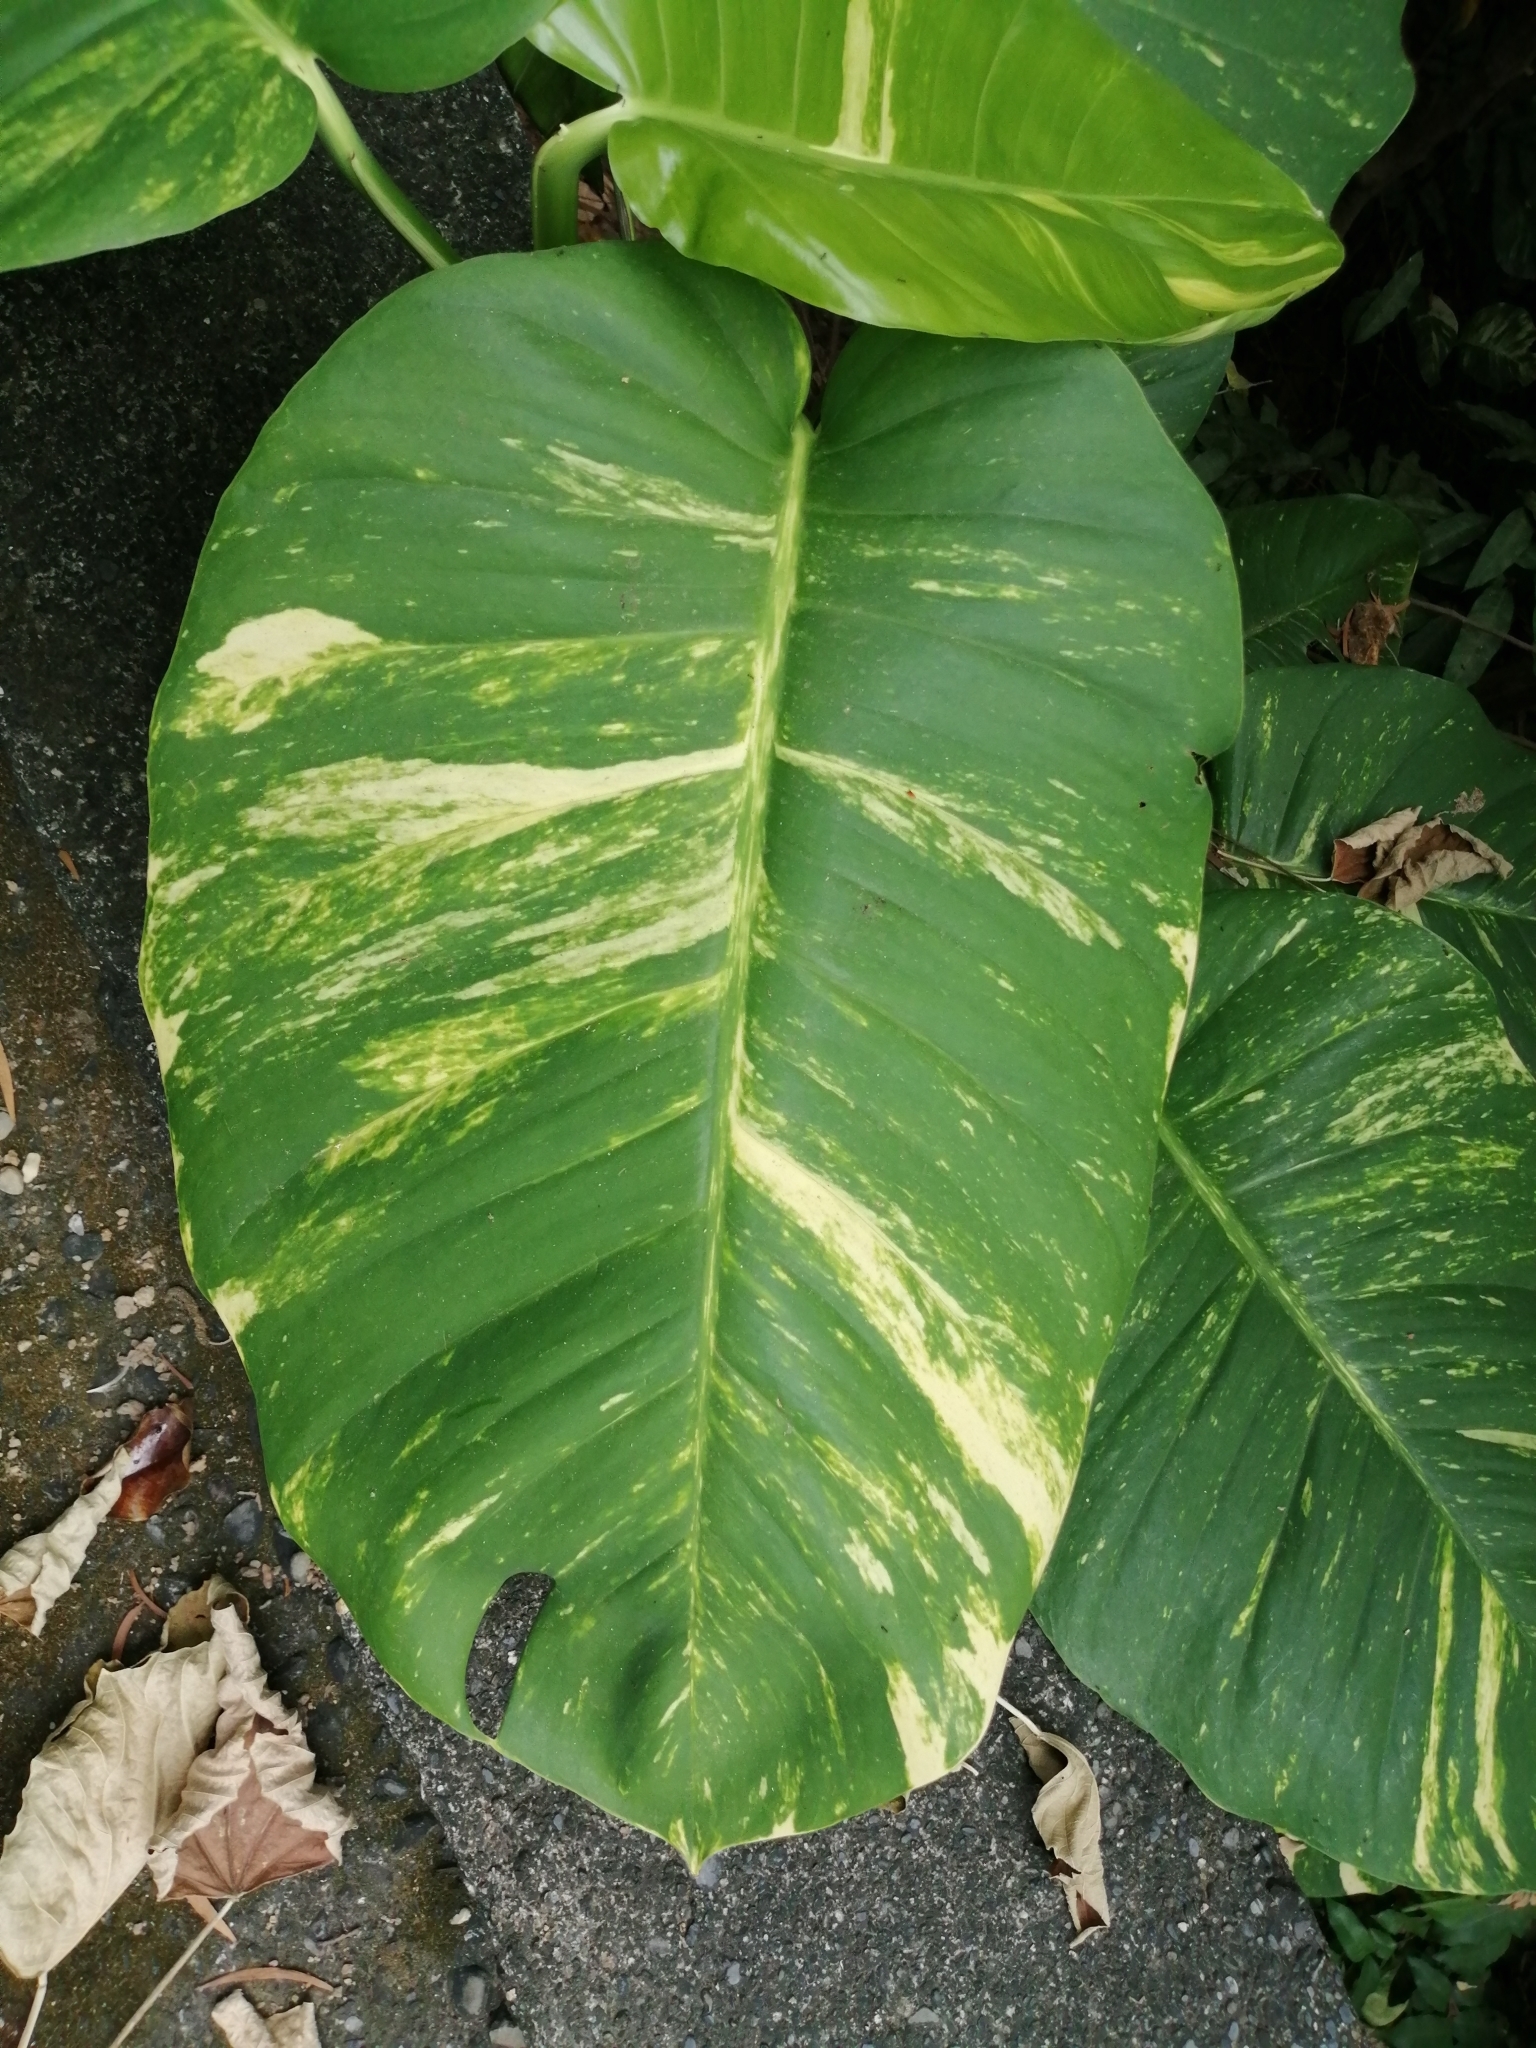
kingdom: Plantae
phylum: Tracheophyta
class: Liliopsida
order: Alismatales
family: Araceae
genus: Epipremnum
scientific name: Epipremnum aureum
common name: Golden hunter's-robe
